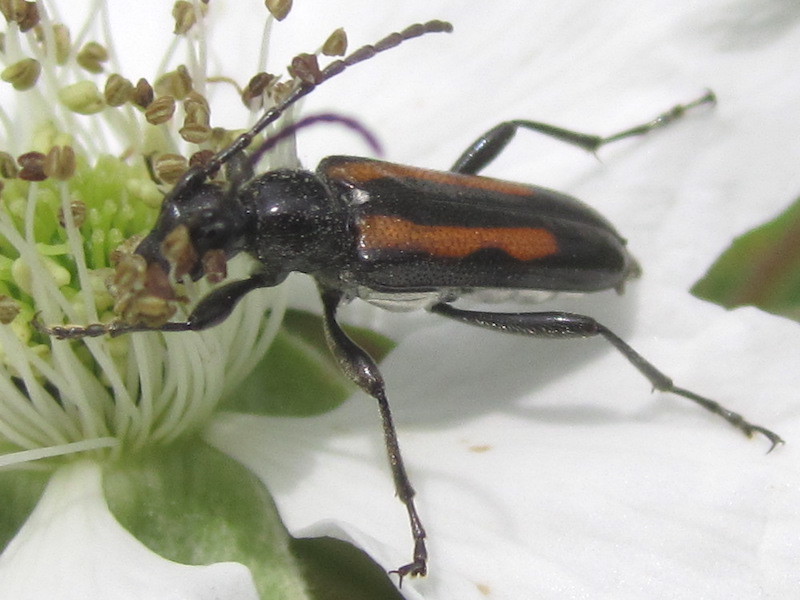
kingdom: Animalia
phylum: Arthropoda
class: Insecta
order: Coleoptera
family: Cerambycidae
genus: Strangalepta
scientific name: Strangalepta abbreviata
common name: Strangalepta flower longhorn beetle
